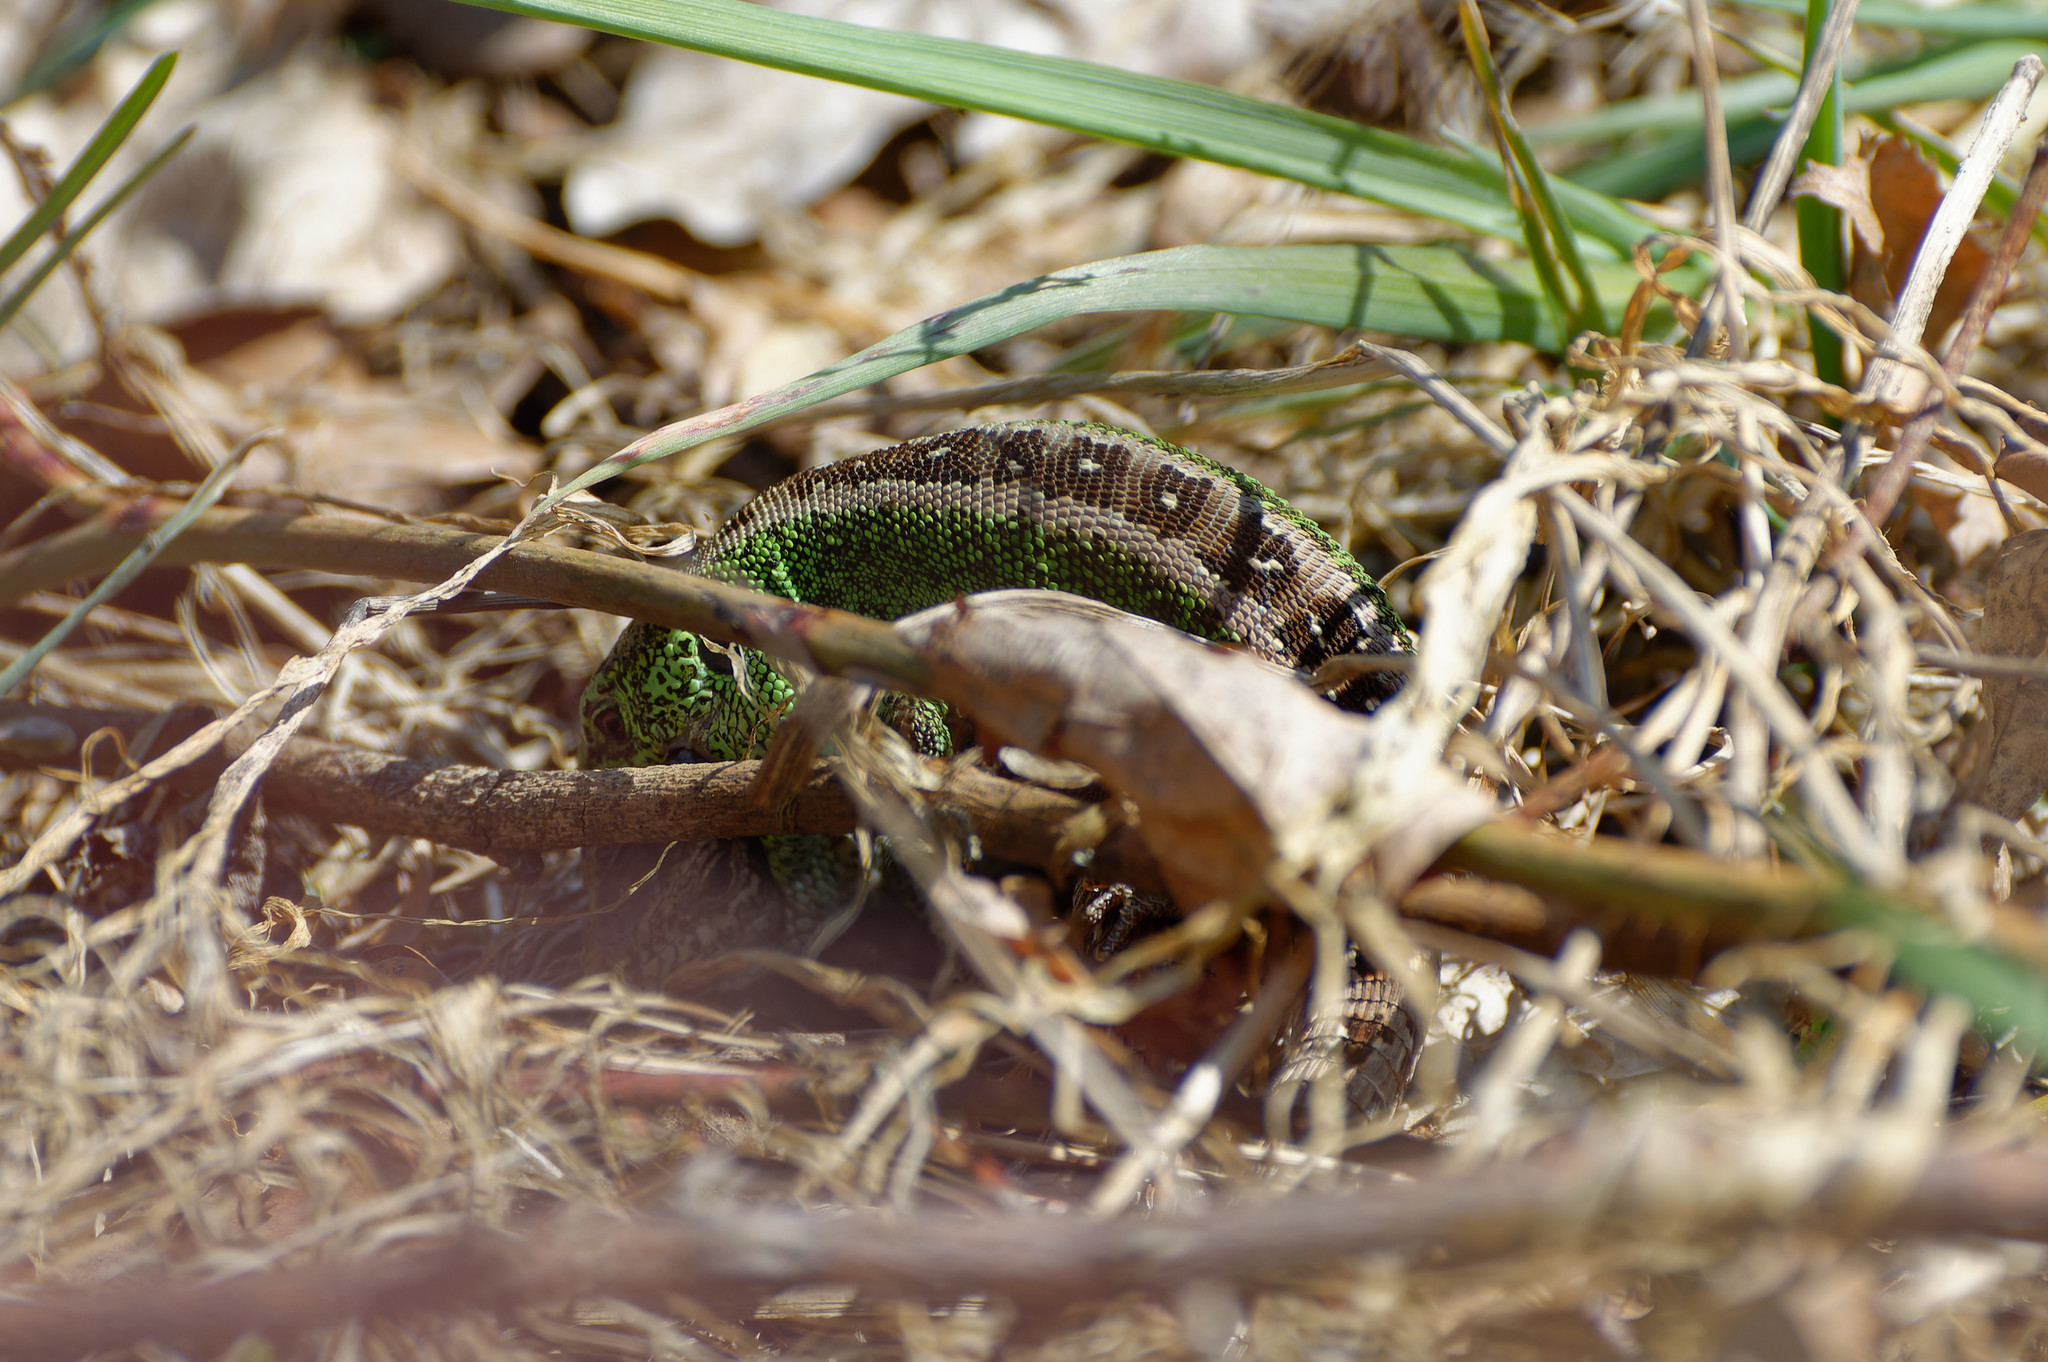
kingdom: Animalia
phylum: Chordata
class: Squamata
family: Lacertidae
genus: Lacerta
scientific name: Lacerta agilis
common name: Sand lizard
